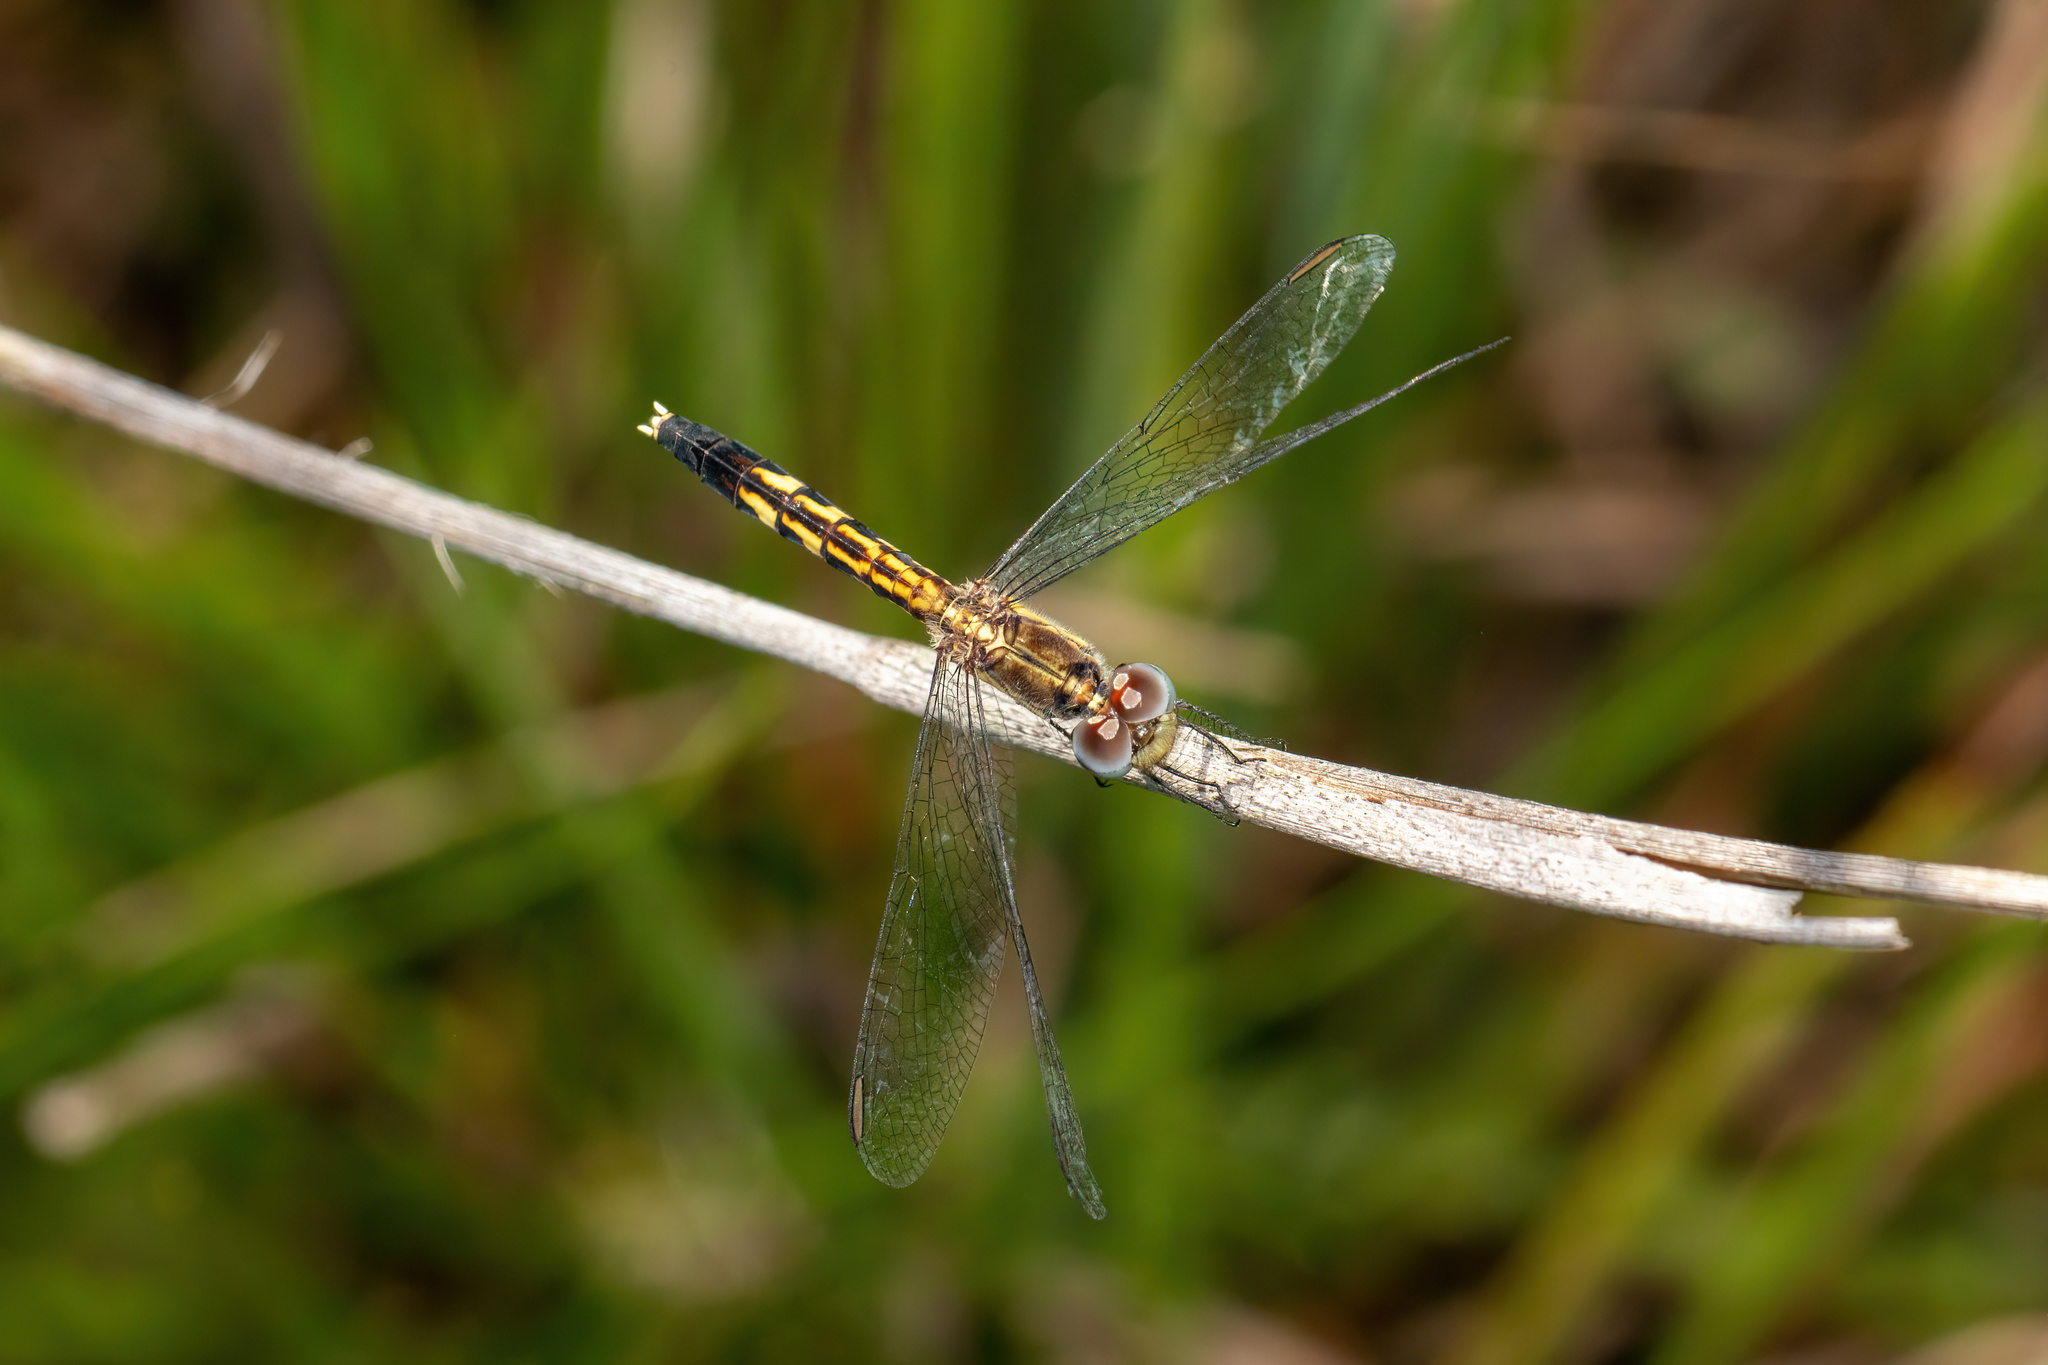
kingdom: Animalia
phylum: Arthropoda
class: Insecta
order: Odonata
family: Libellulidae
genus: Erythrodiplax
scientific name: Erythrodiplax minuscula
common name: Little blue dragonlet
